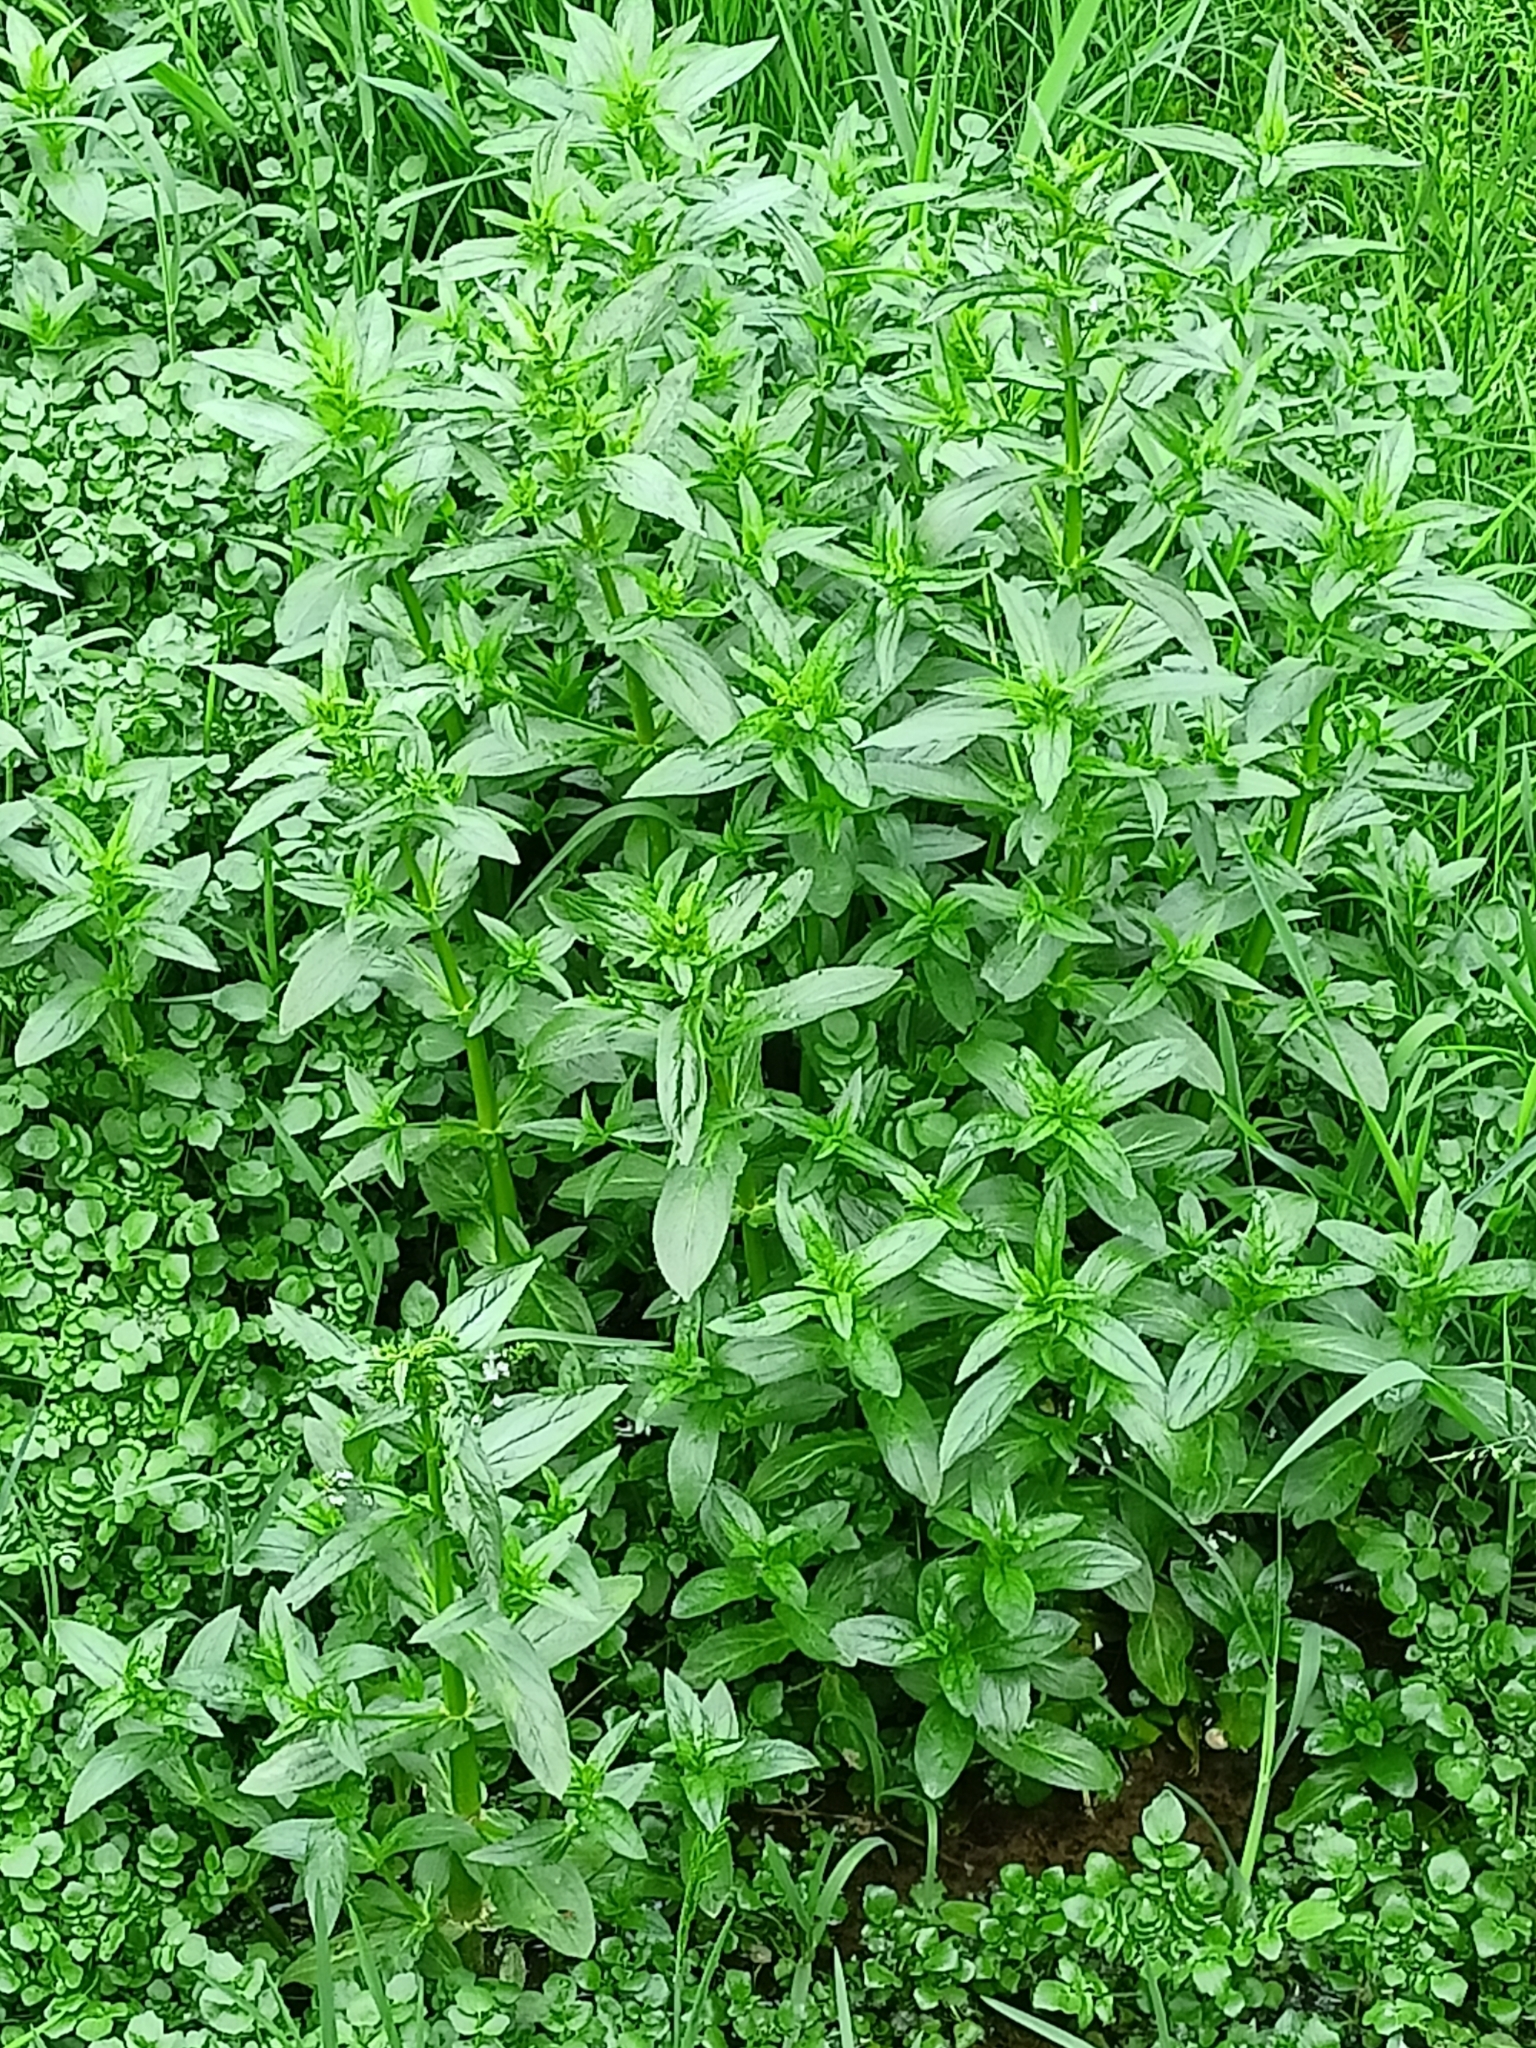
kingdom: Plantae
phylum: Tracheophyta
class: Magnoliopsida
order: Lamiales
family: Plantaginaceae
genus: Veronica
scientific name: Veronica anagallis-aquatica
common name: Water speedwell
